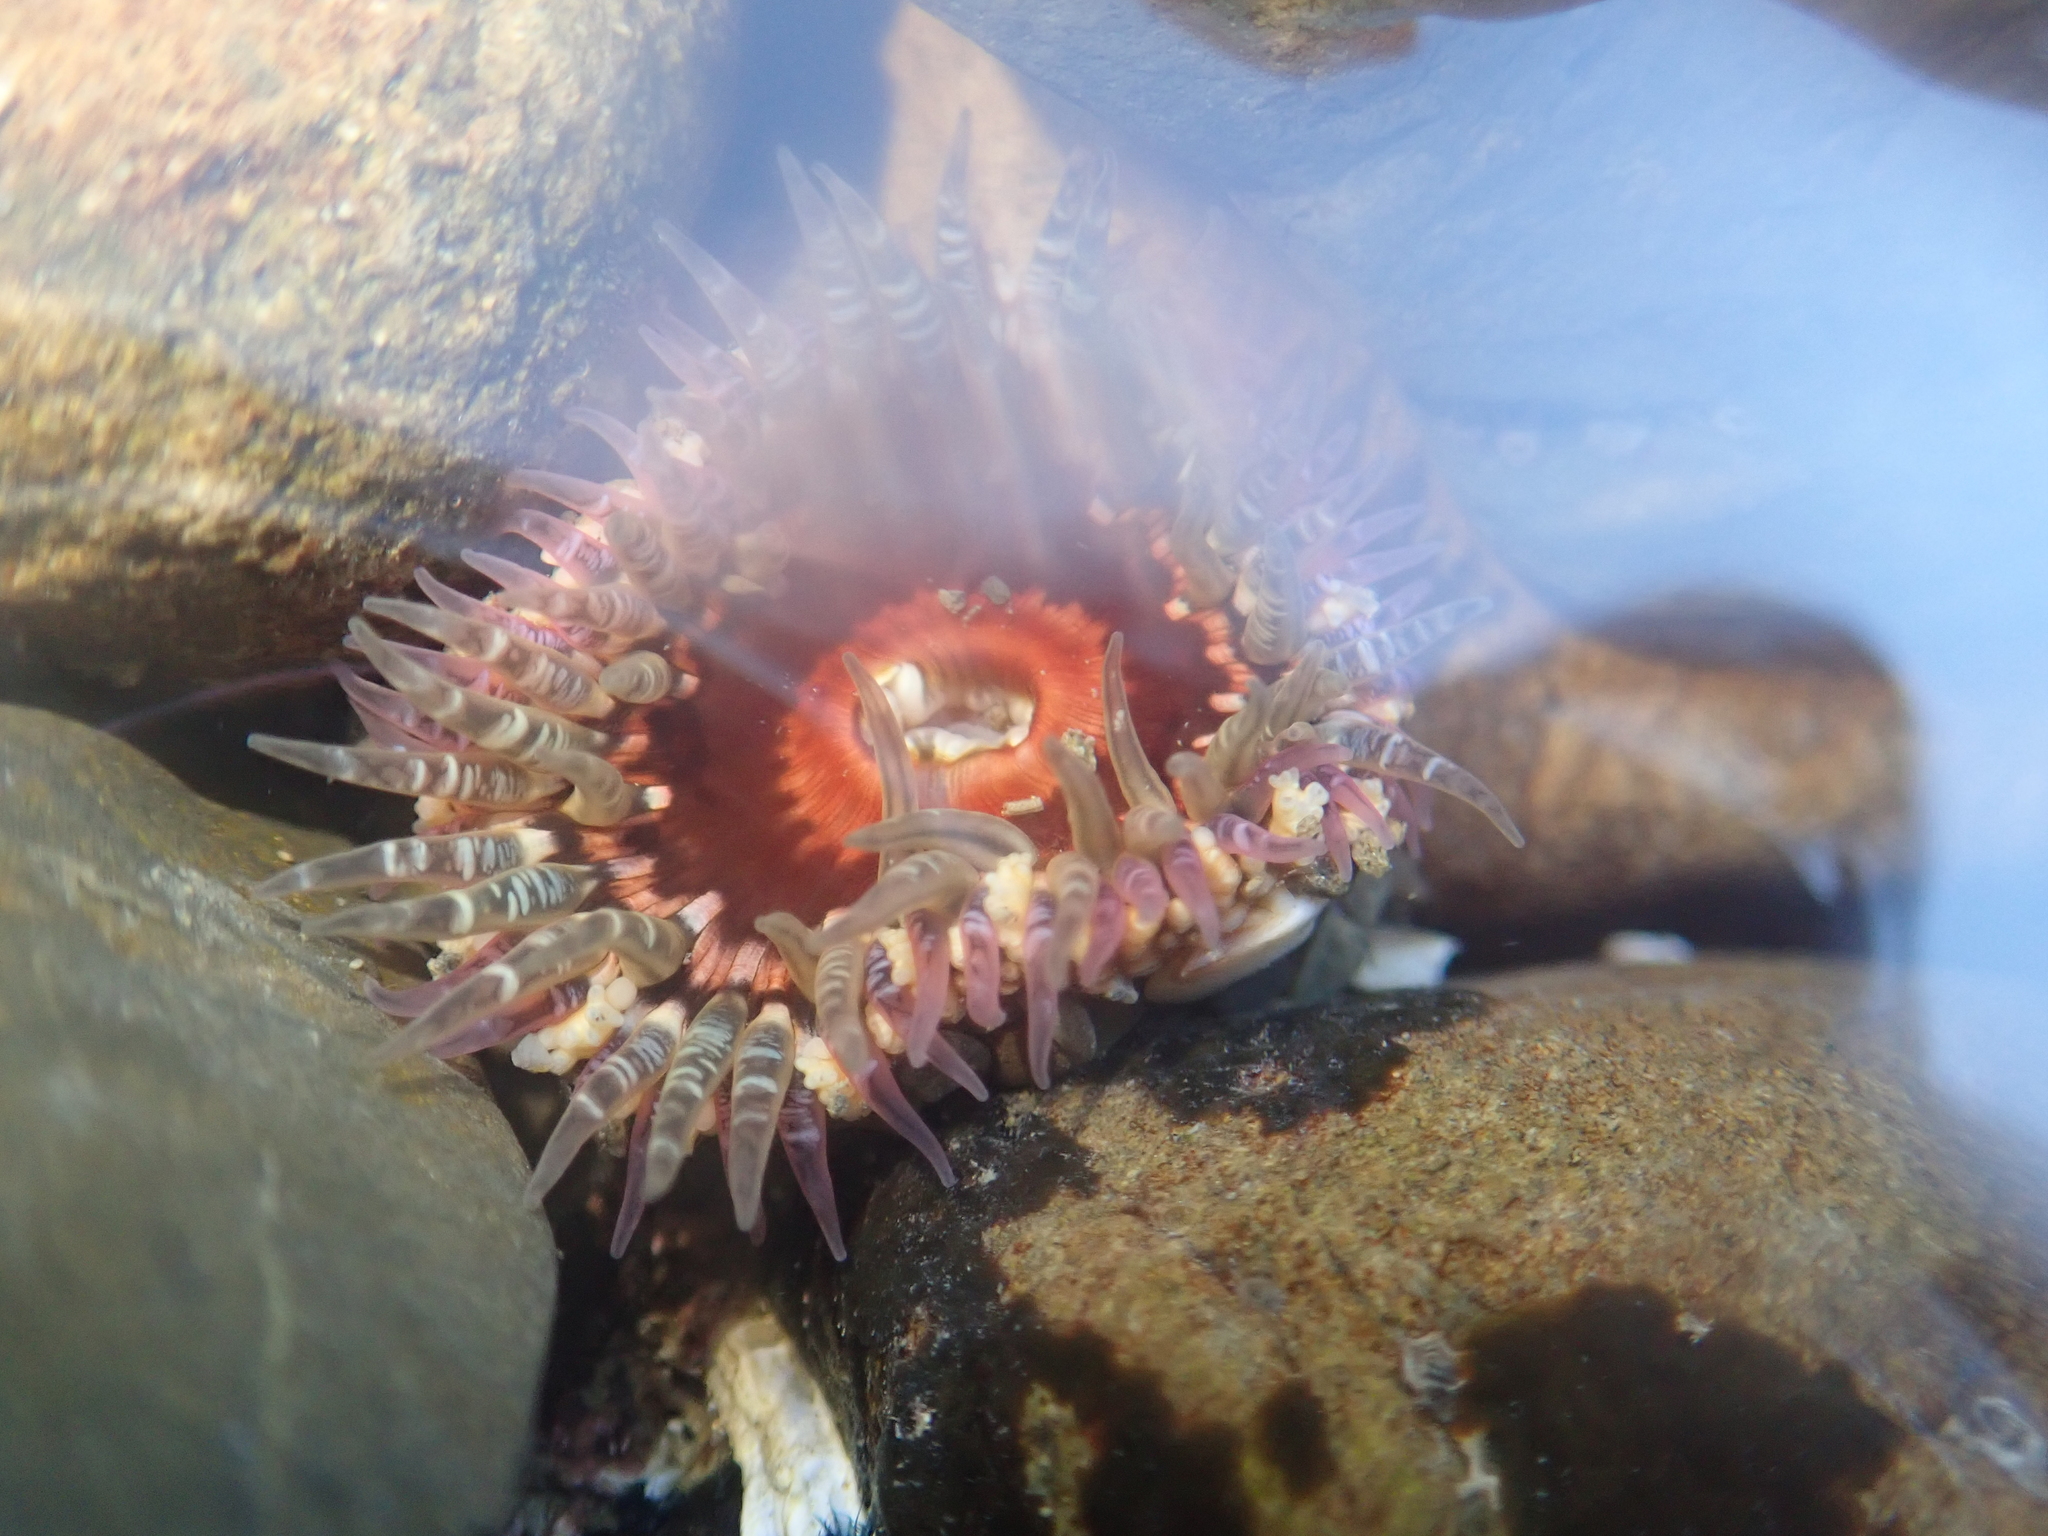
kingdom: Animalia
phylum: Cnidaria
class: Anthozoa
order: Actiniaria
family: Actiniidae
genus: Oulactis
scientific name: Oulactis muscosa
